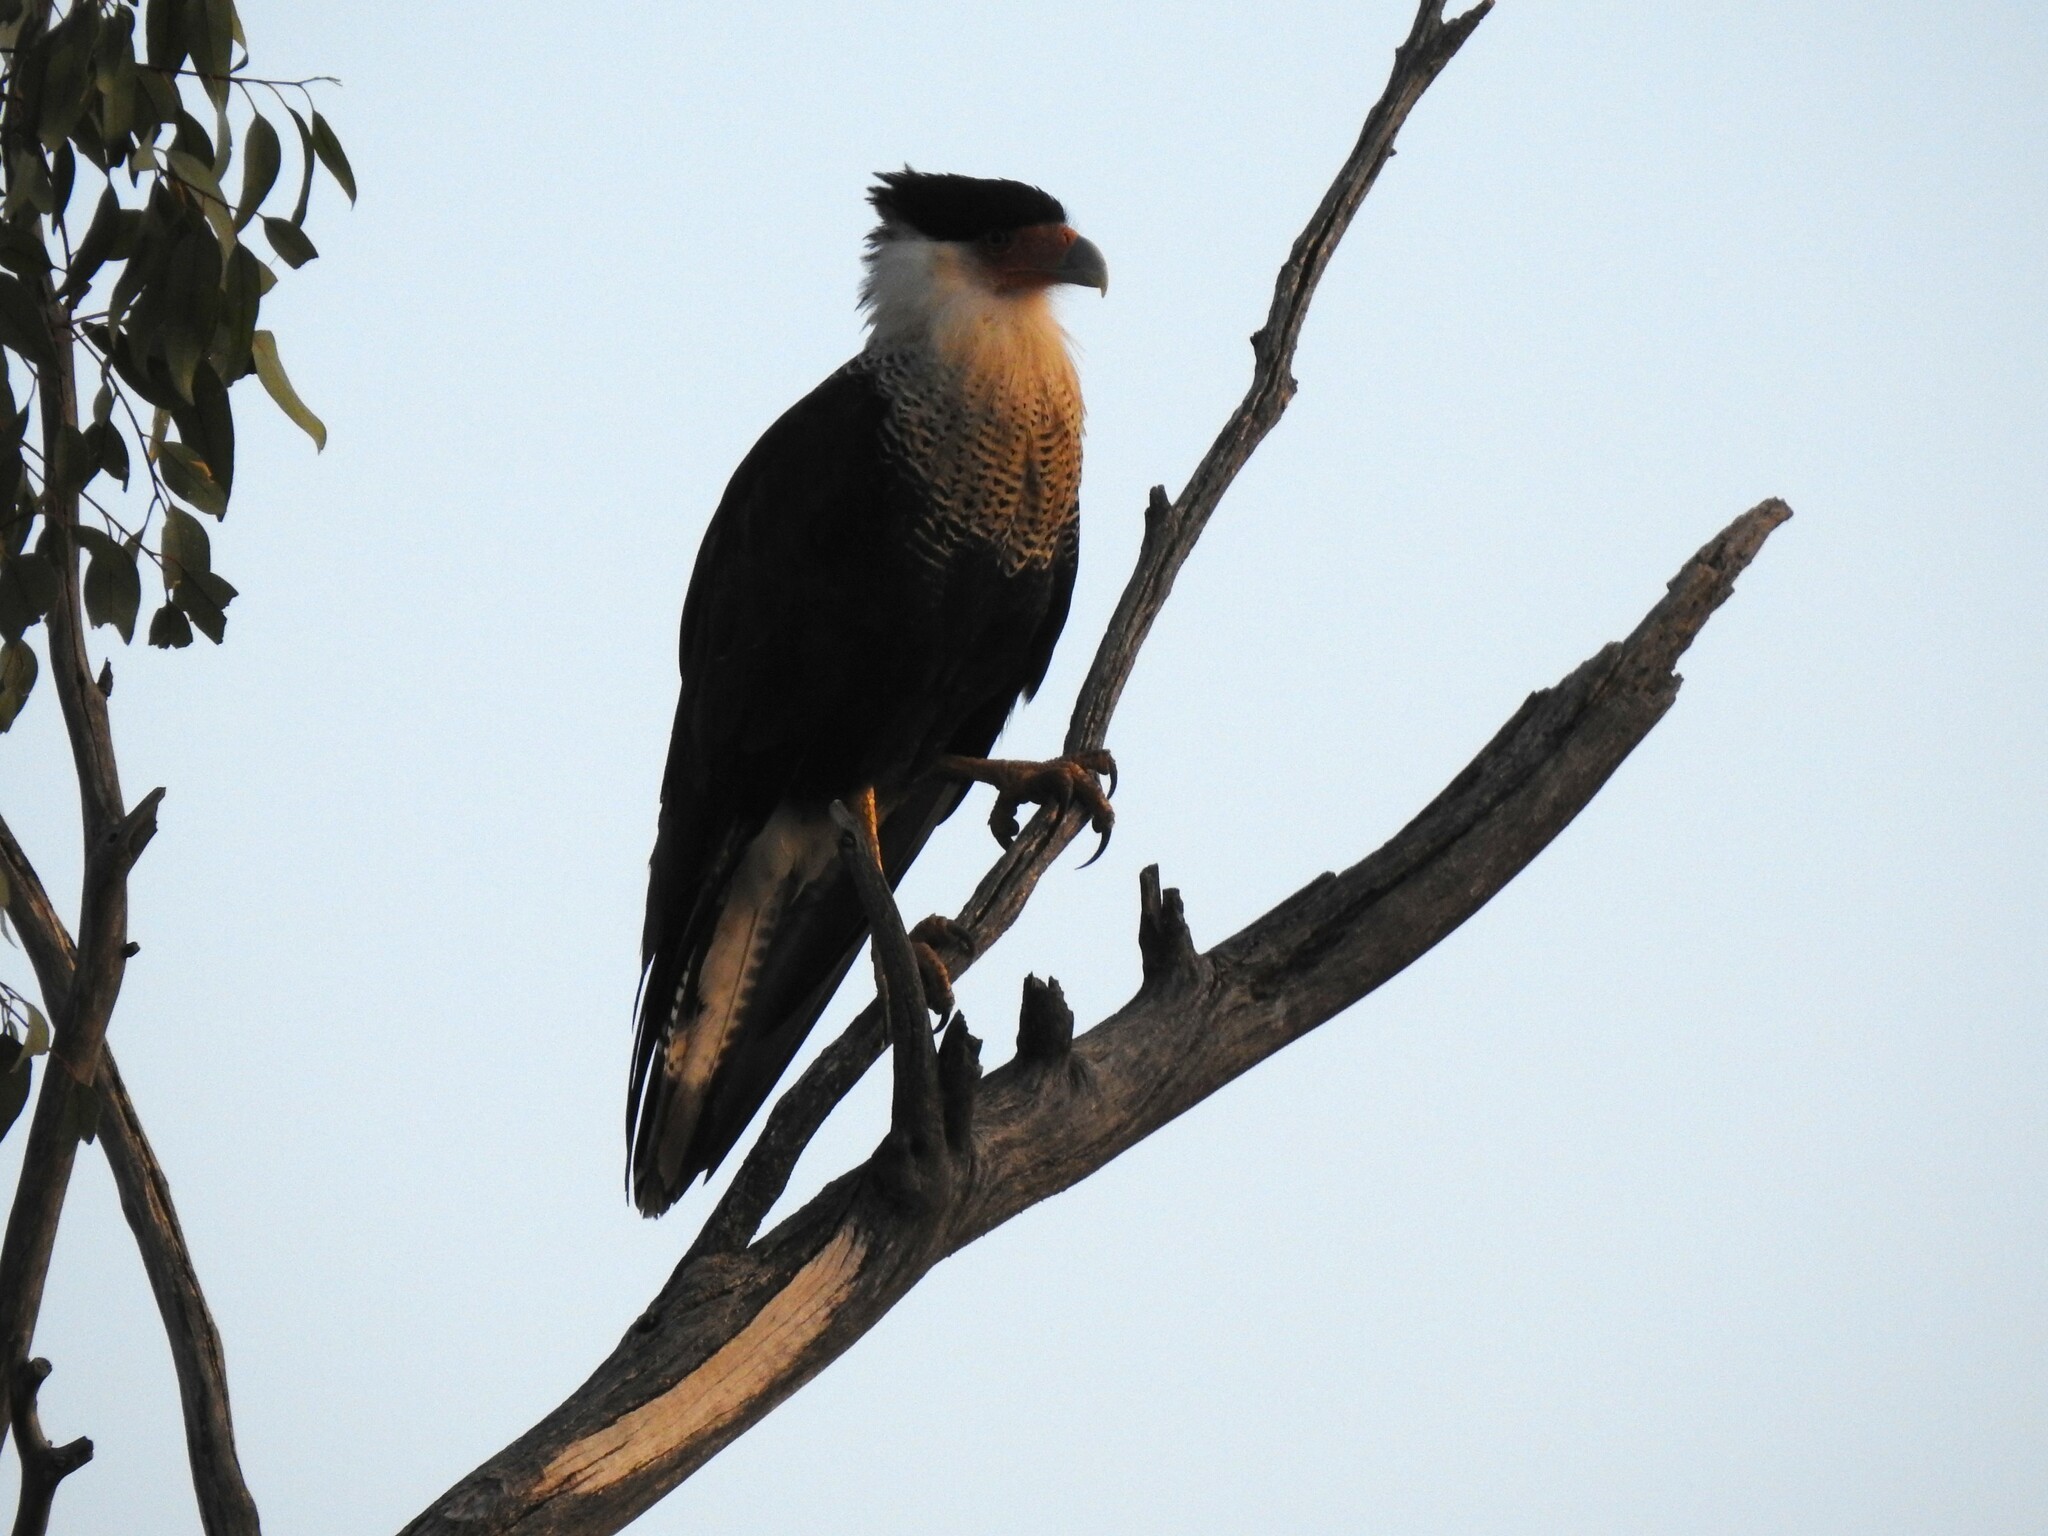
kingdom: Animalia
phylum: Chordata
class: Aves
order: Falconiformes
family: Falconidae
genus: Caracara
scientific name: Caracara plancus
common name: Southern caracara
